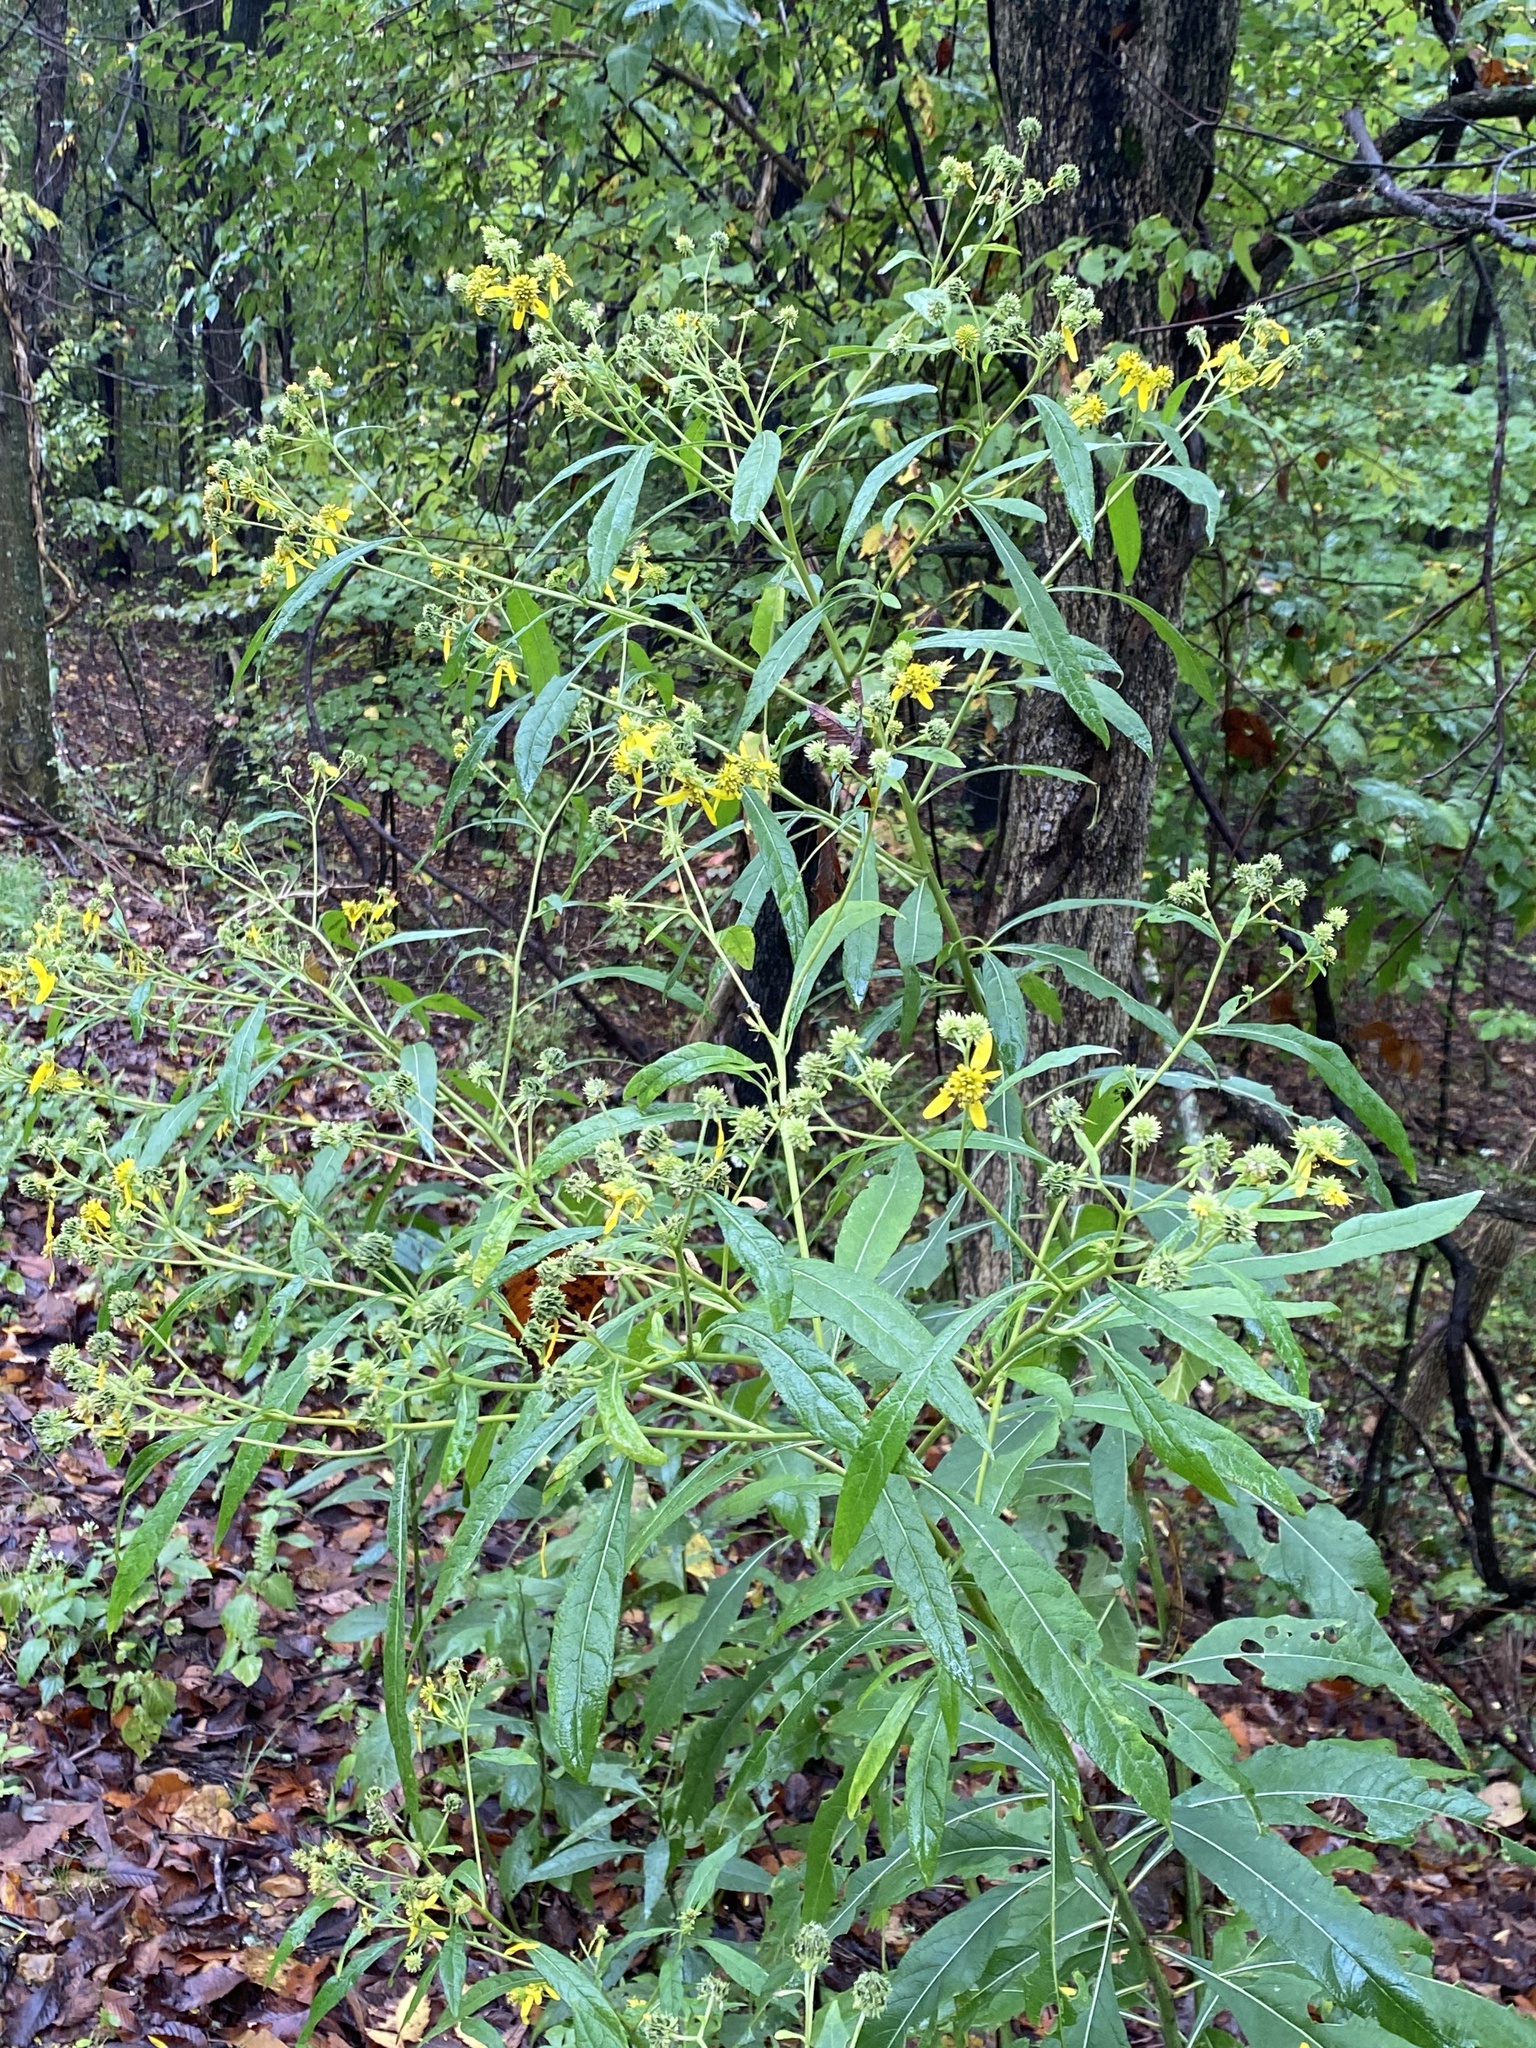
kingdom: Plantae
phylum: Tracheophyta
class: Magnoliopsida
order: Asterales
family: Asteraceae
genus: Verbesina
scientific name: Verbesina alternifolia
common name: Wingstem
